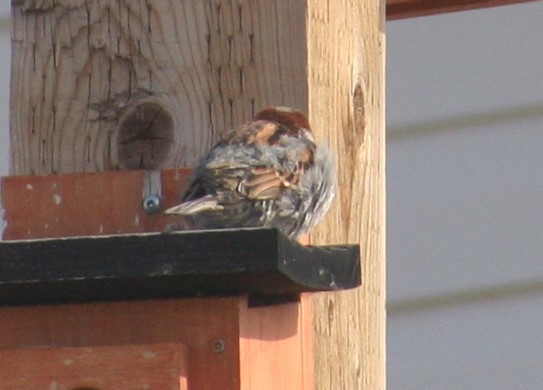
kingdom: Animalia
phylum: Chordata
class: Aves
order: Passeriformes
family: Passeridae
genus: Passer
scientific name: Passer domesticus
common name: House sparrow
